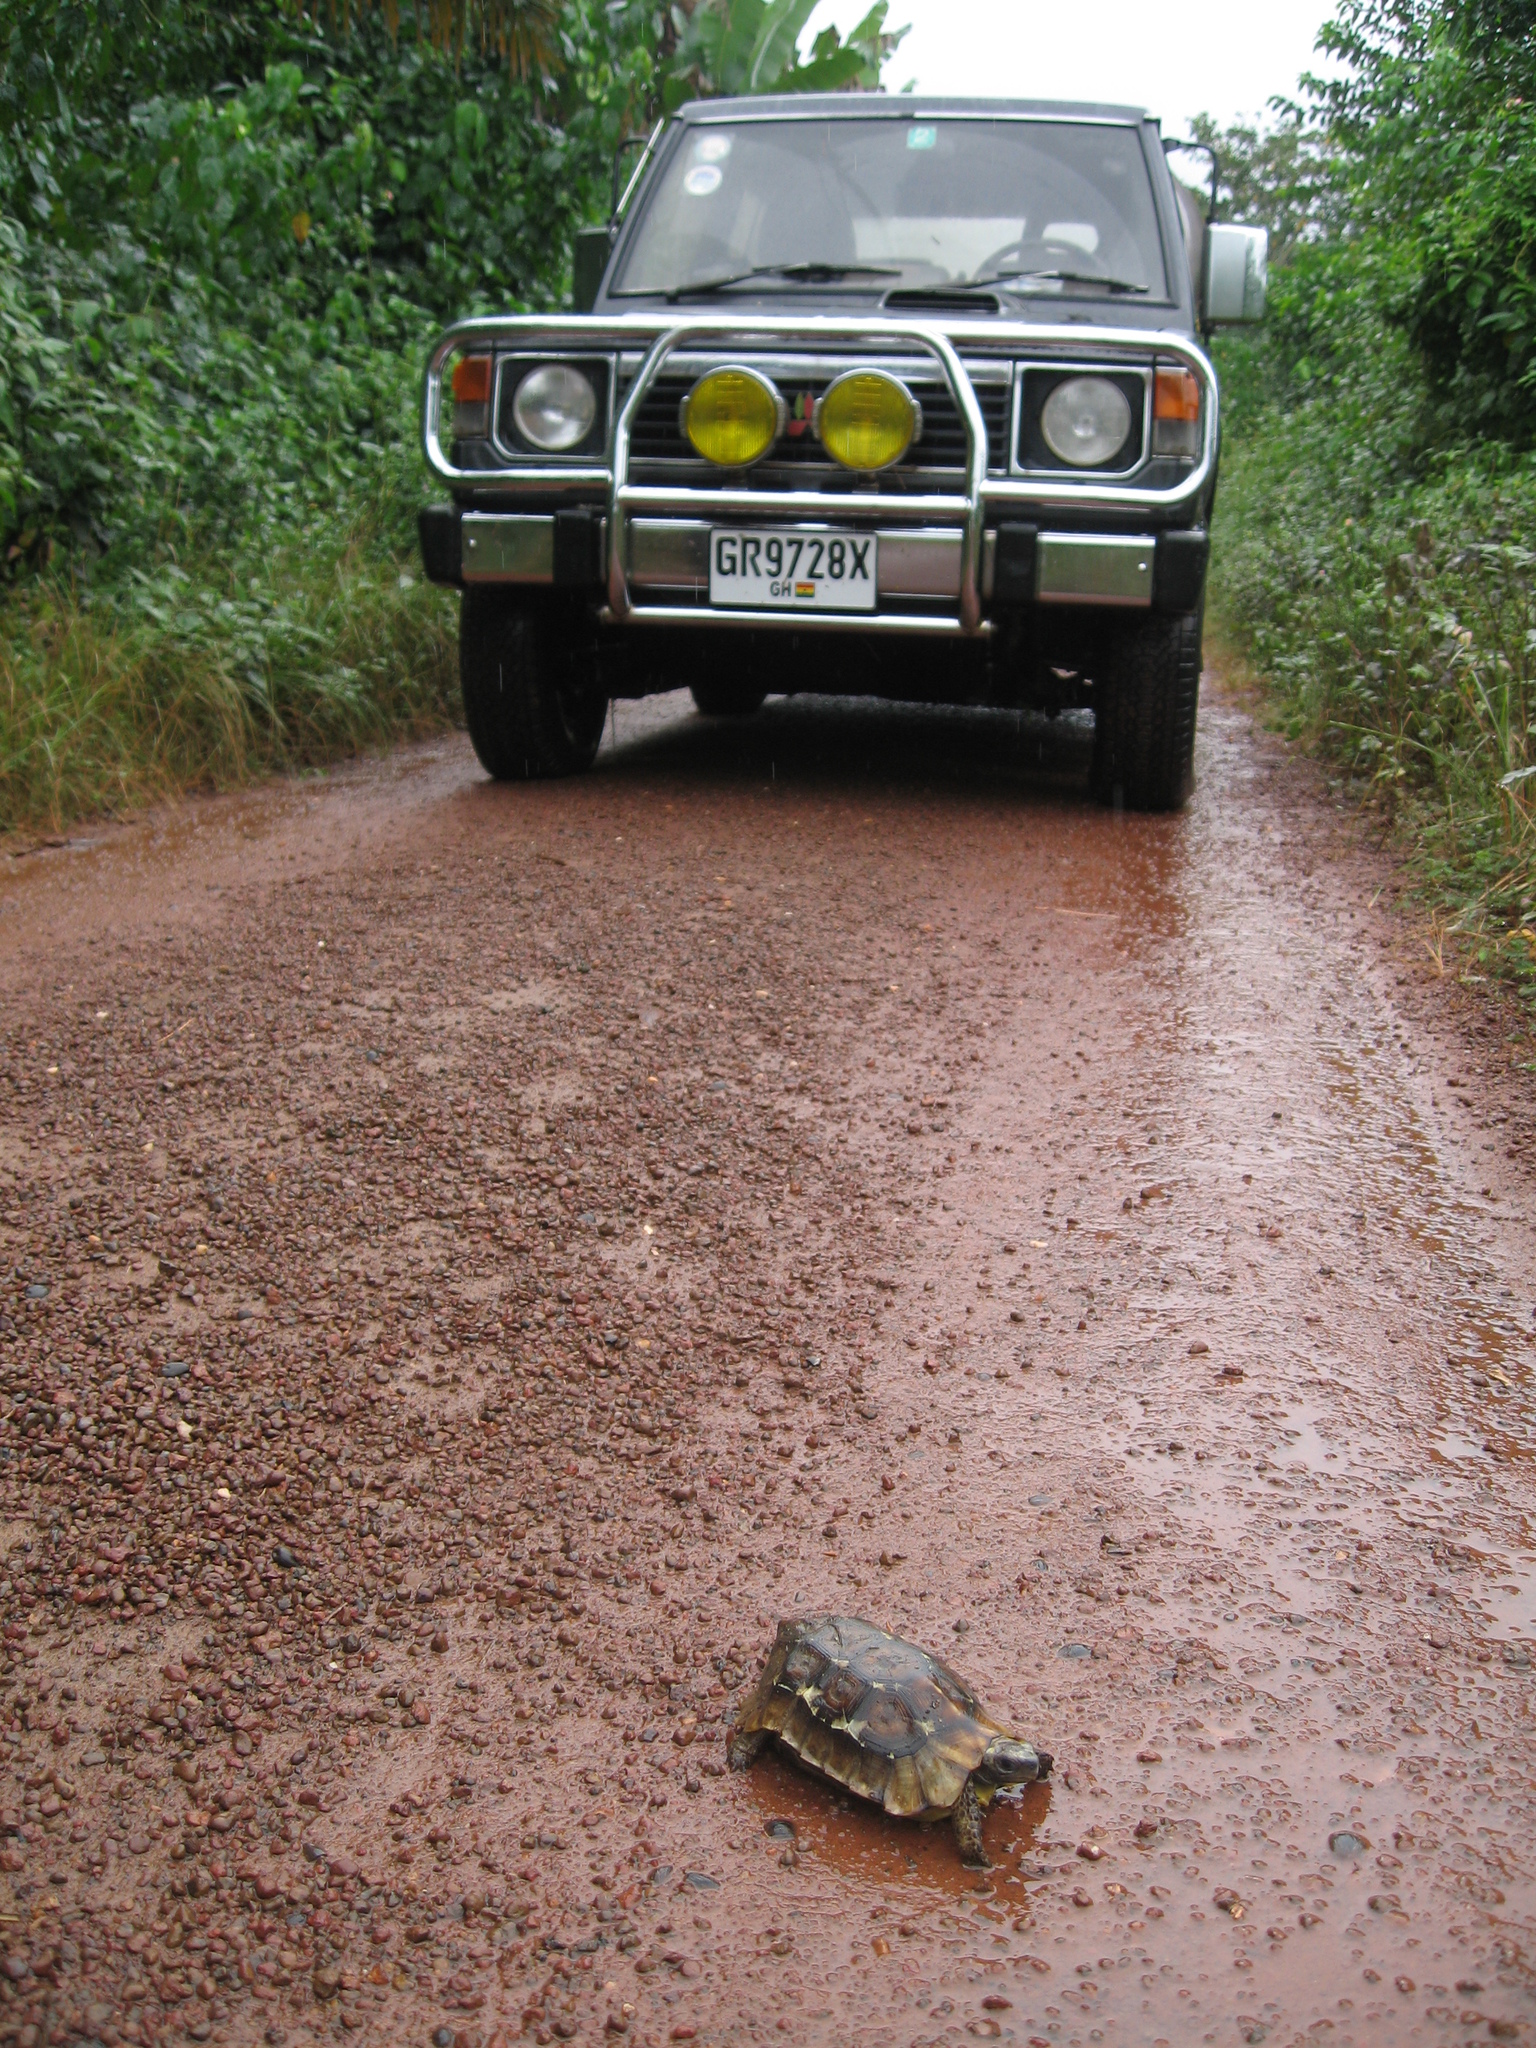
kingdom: Animalia
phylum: Chordata
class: Testudines
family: Testudinidae
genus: Kinixys
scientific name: Kinixys homeana
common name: Home's hingeback tortoise
